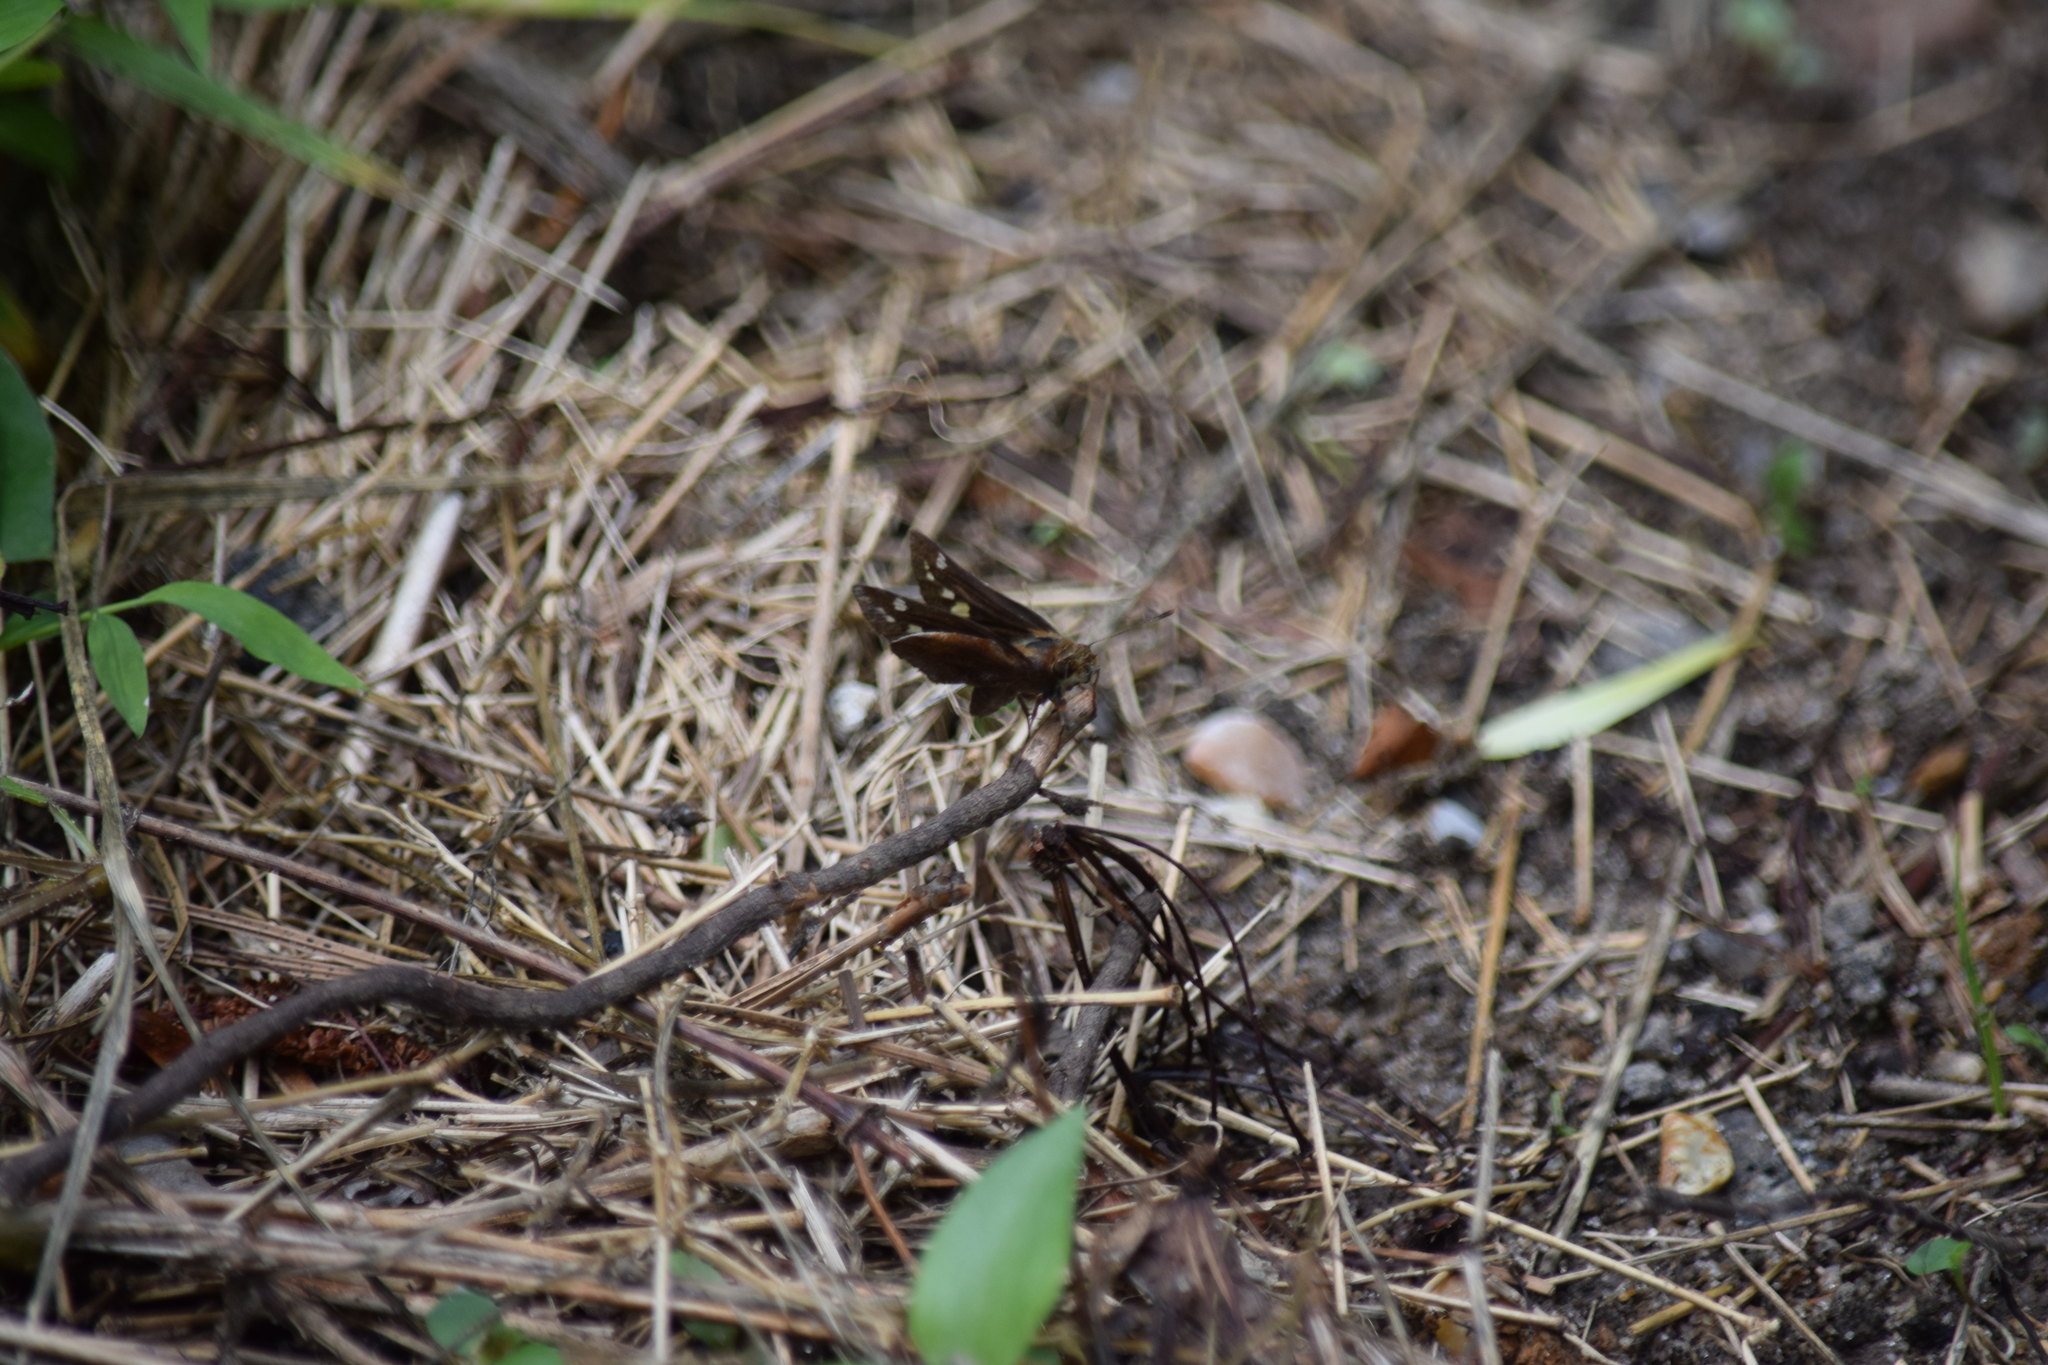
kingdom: Animalia
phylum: Arthropoda
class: Insecta
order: Lepidoptera
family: Hesperiidae
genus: Lon
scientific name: Lon zabulon
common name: Zabulon skipper
